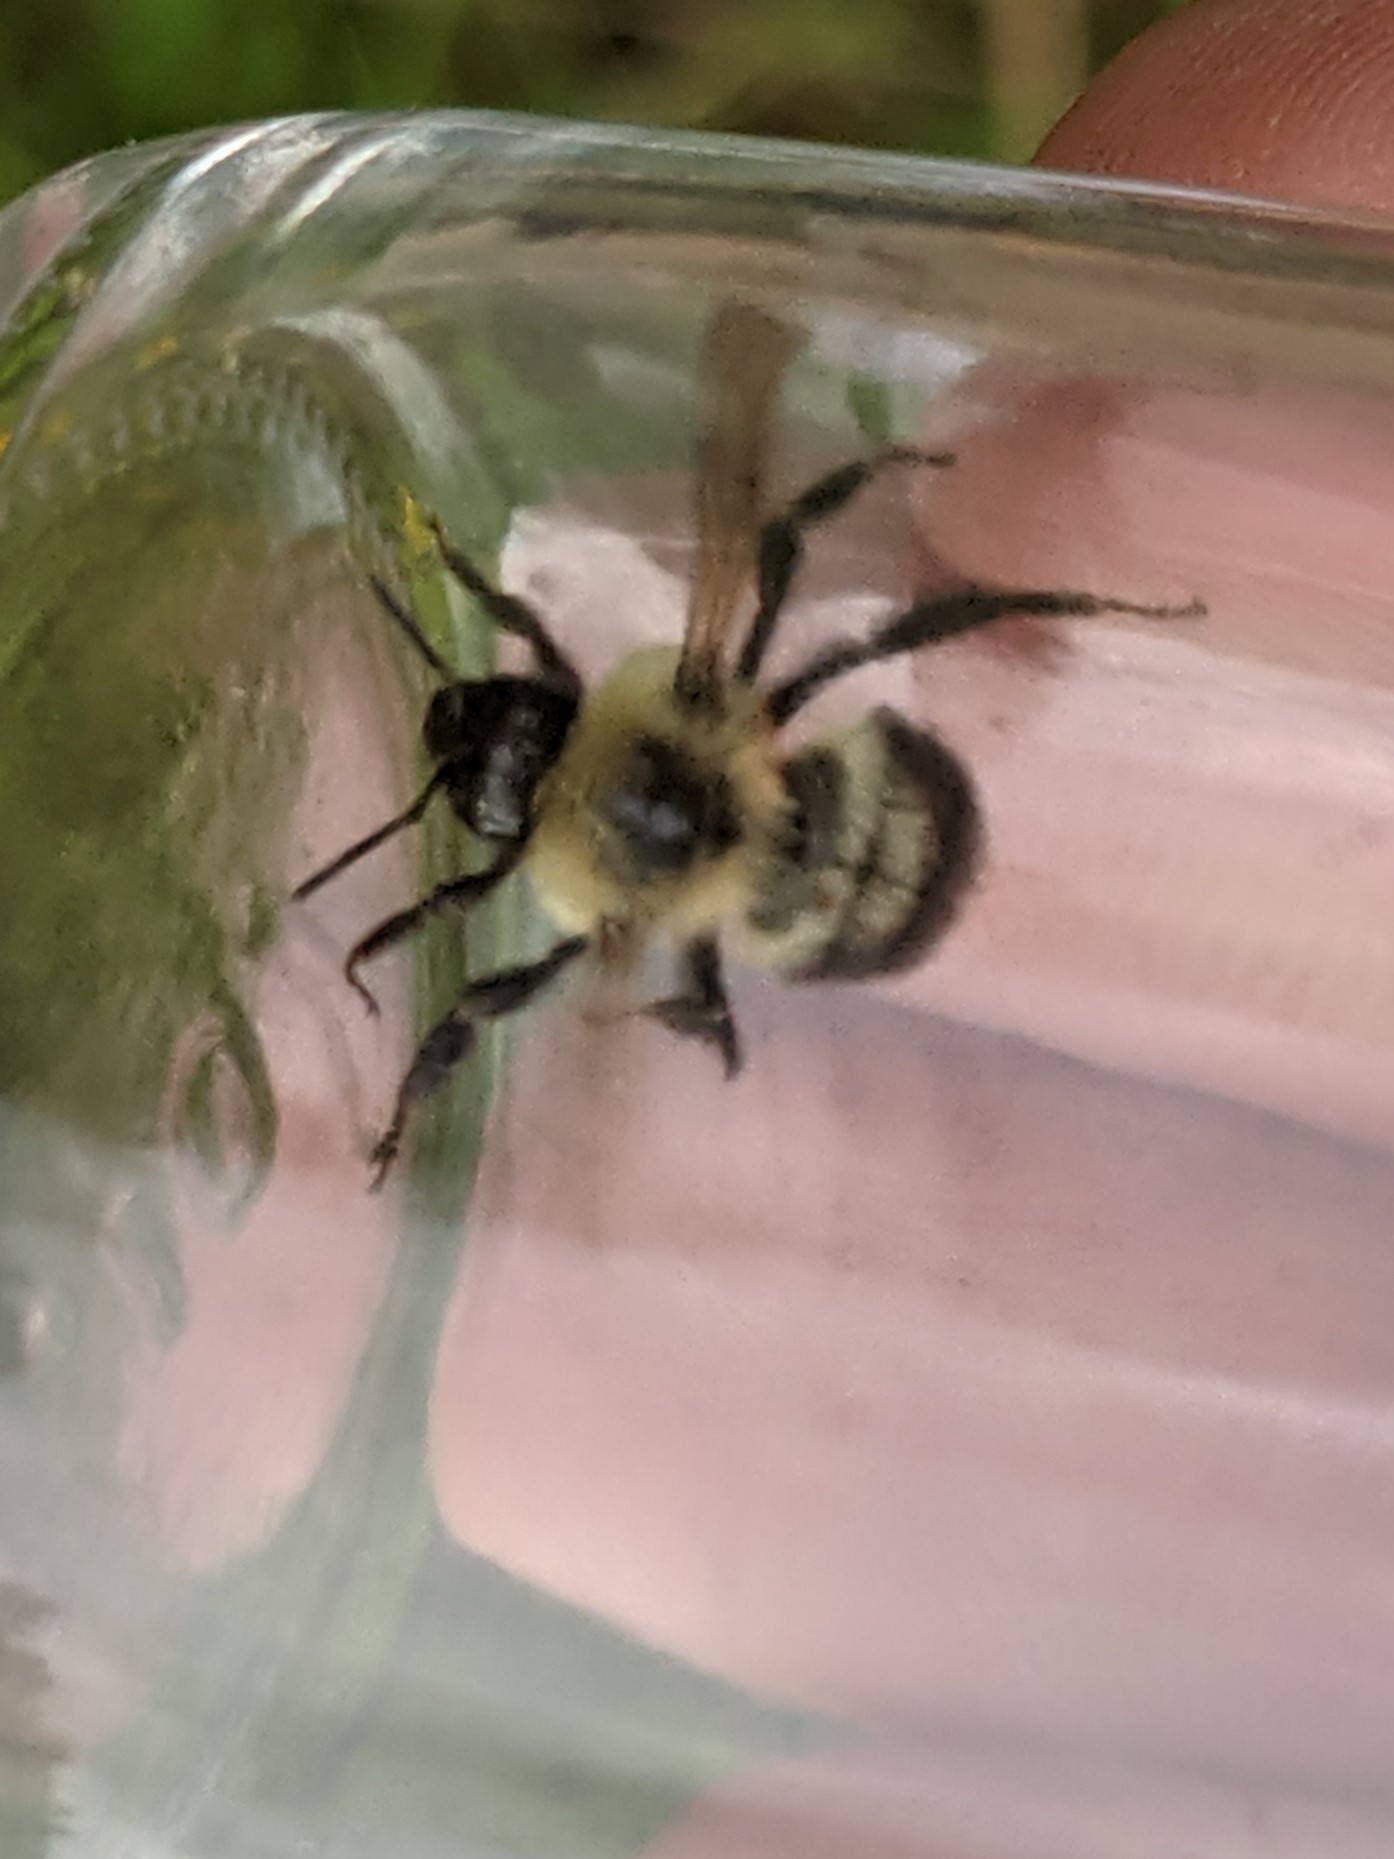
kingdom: Animalia
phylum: Arthropoda
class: Insecta
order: Hymenoptera
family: Apidae
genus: Bombus
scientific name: Bombus bimaculatus
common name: Two-spotted bumble bee
